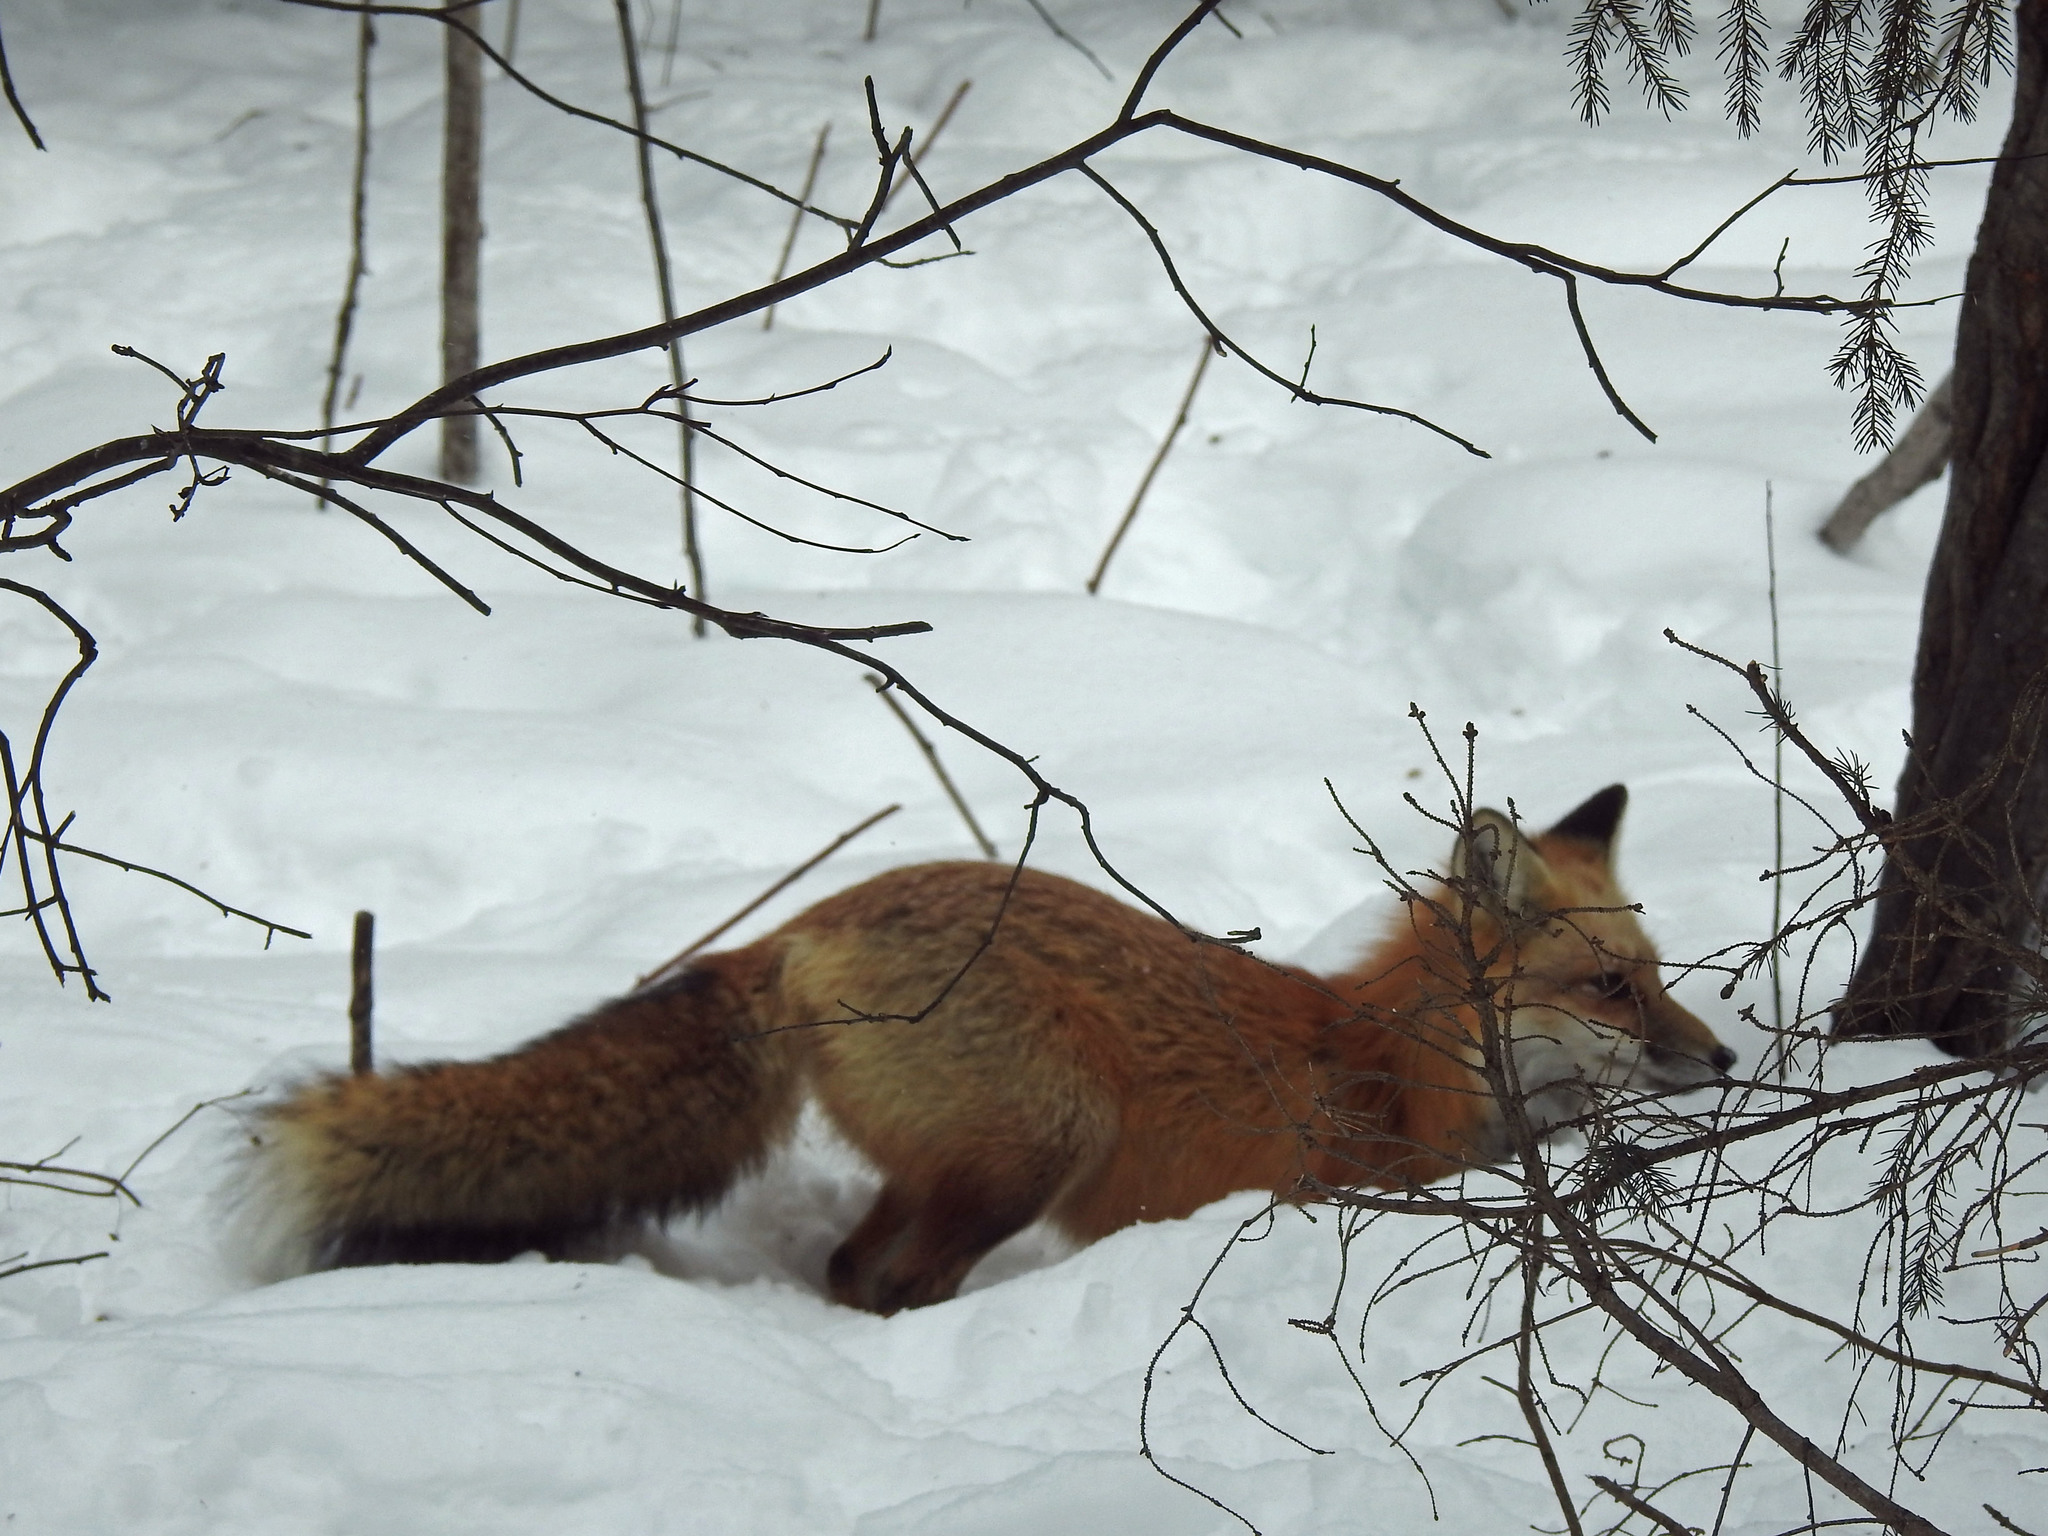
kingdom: Animalia
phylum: Chordata
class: Mammalia
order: Carnivora
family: Canidae
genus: Vulpes
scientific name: Vulpes vulpes
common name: Red fox
